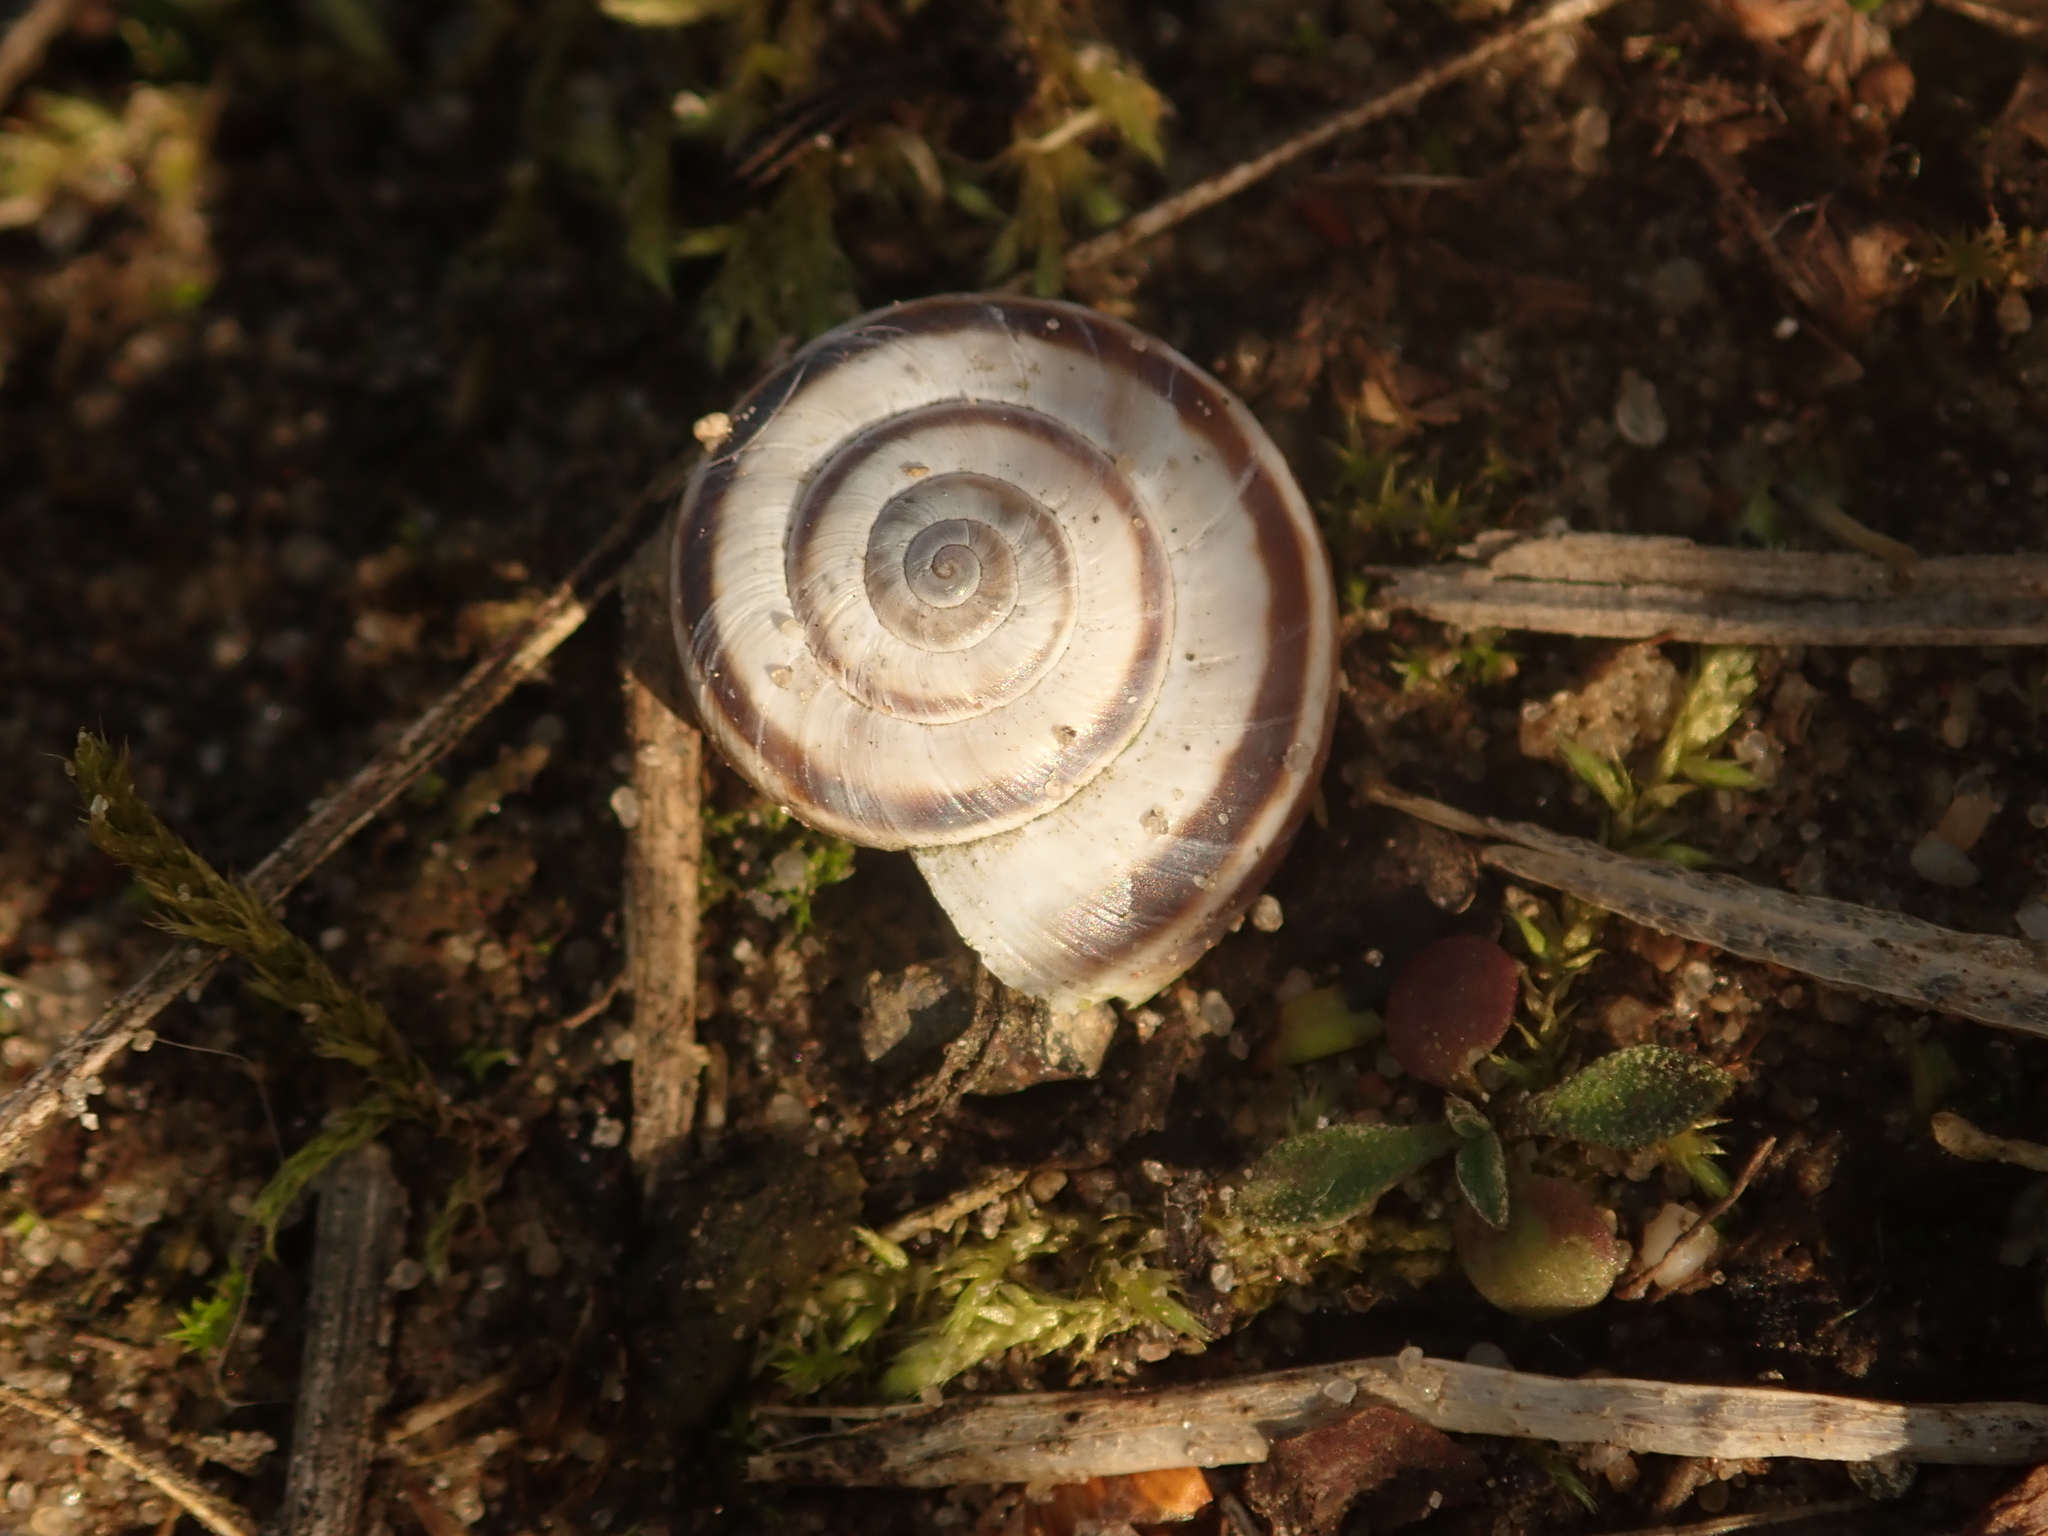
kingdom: Animalia
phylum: Mollusca
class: Gastropoda
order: Stylommatophora
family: Geomitridae
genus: Xerolenta
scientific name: Xerolenta obvia
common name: White heath snail
